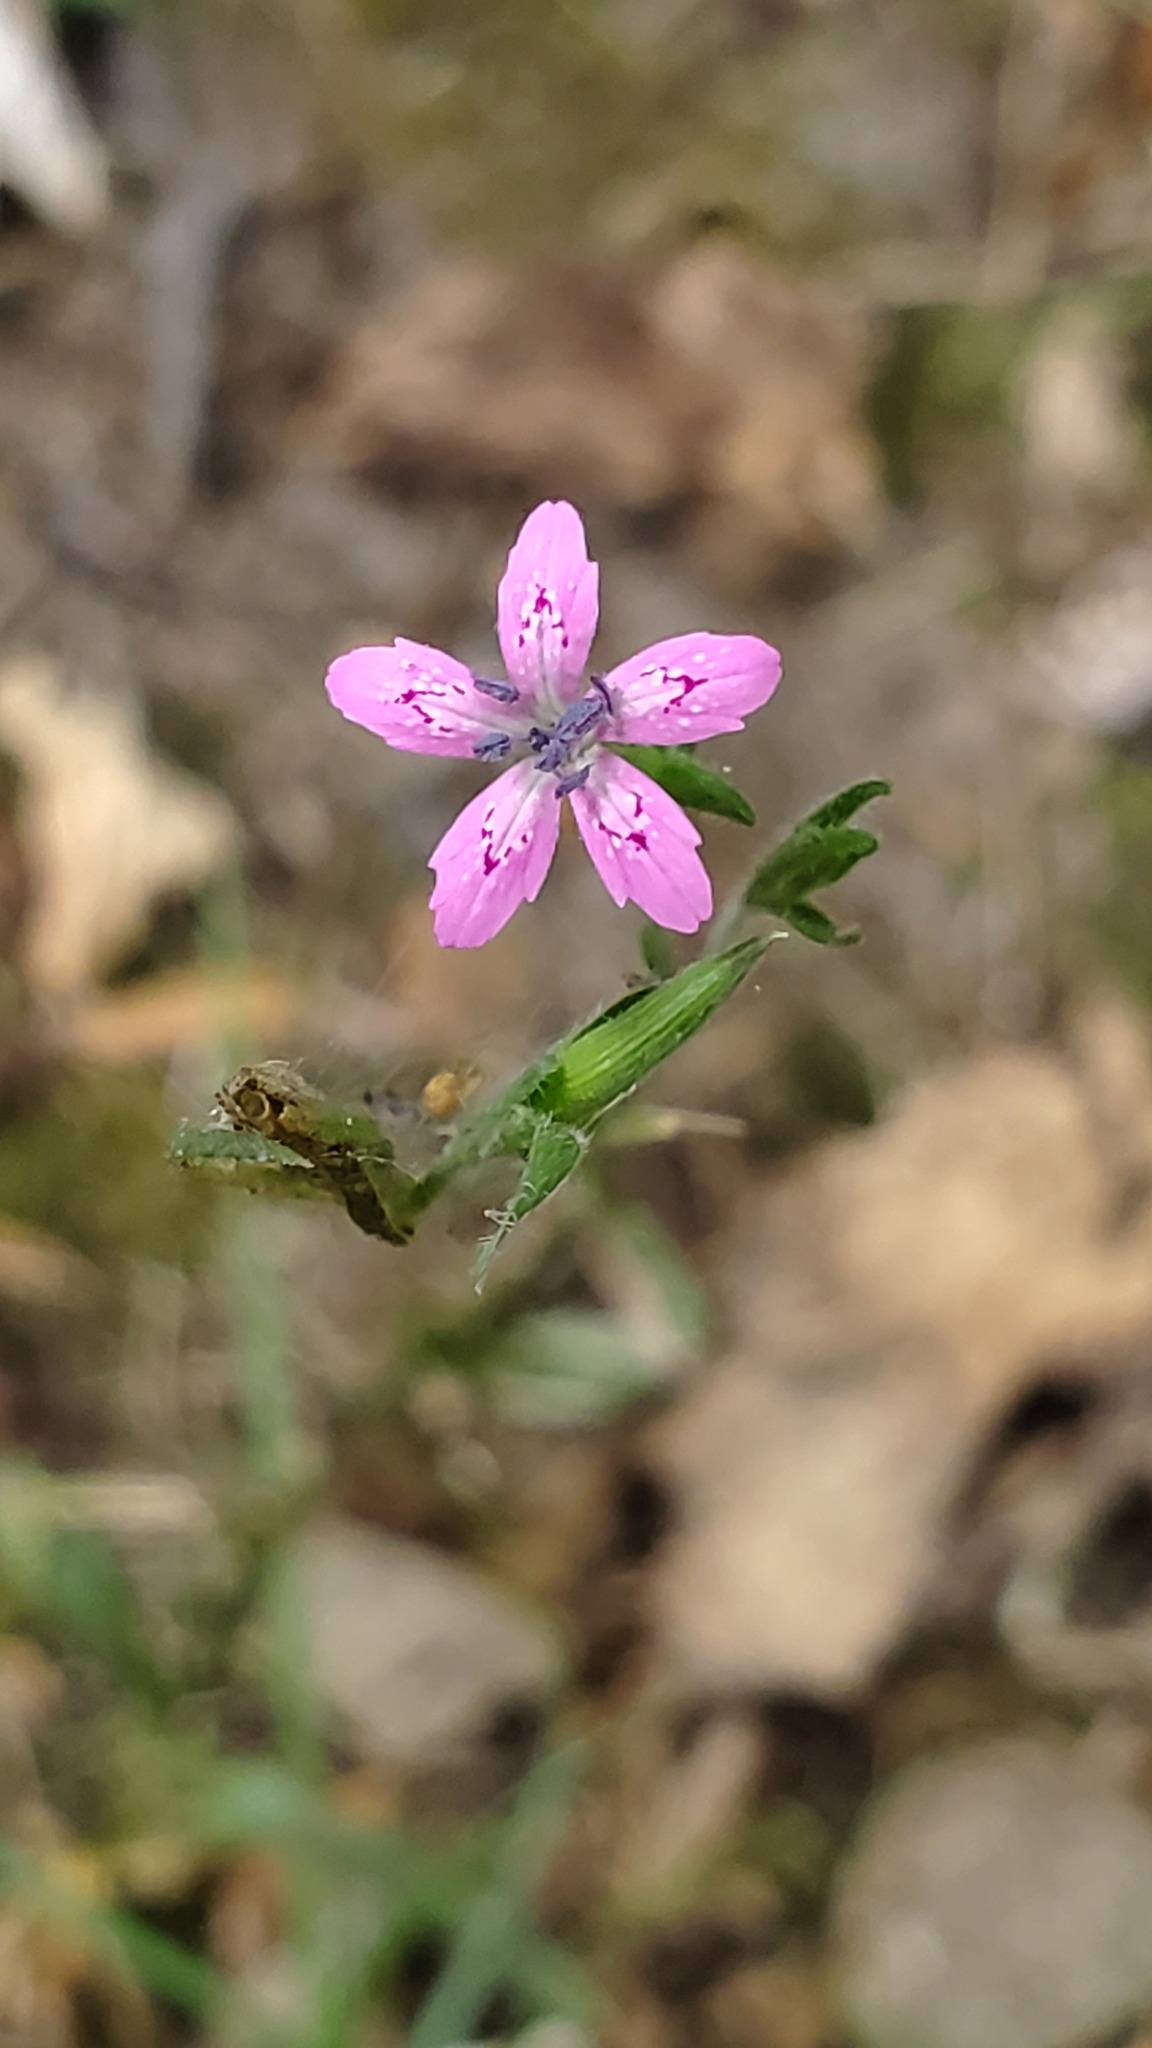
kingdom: Plantae
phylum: Tracheophyta
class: Magnoliopsida
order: Caryophyllales
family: Caryophyllaceae
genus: Dianthus
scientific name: Dianthus armeria
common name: Deptford pink
